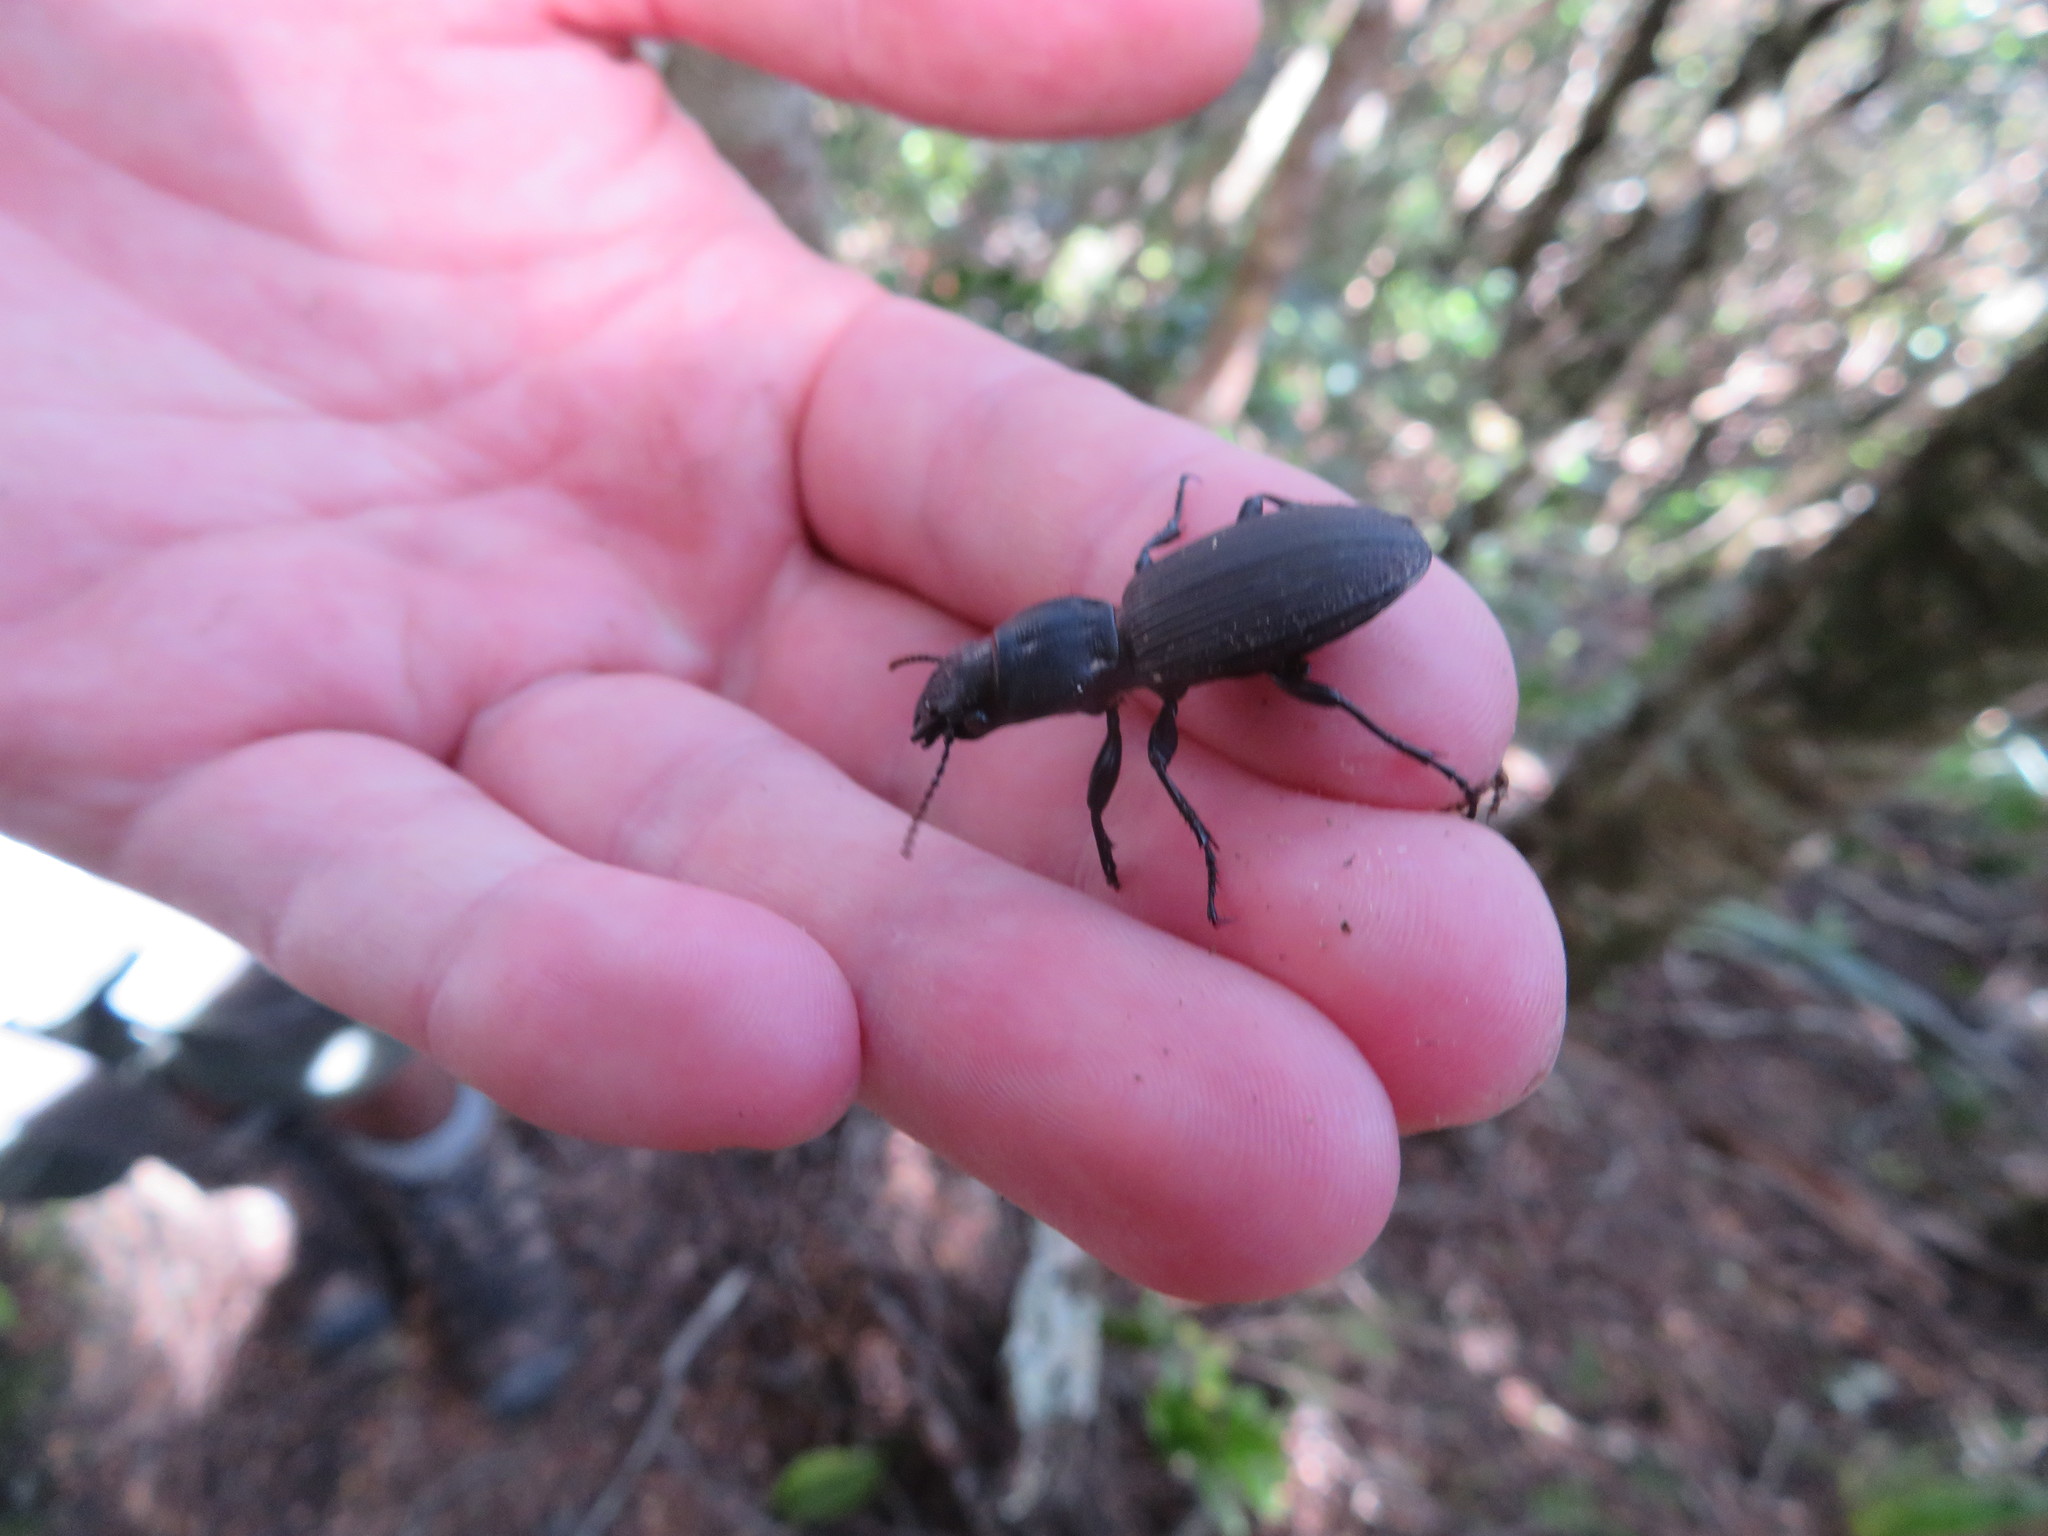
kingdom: Animalia
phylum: Arthropoda
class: Insecta
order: Coleoptera
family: Carabidae
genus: Mecodema
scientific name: Mecodema simplex
